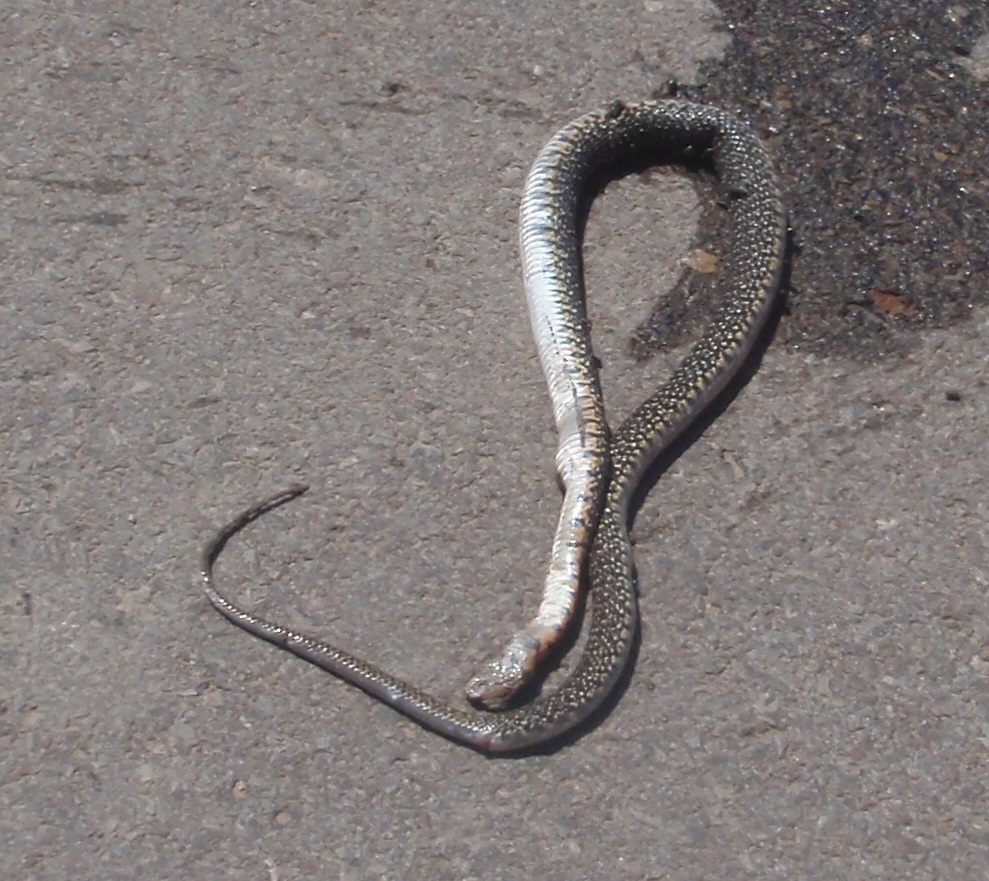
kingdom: Animalia
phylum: Chordata
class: Squamata
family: Colubridae
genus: Hemorrhois
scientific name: Hemorrhois hippocrepis
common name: Horseshoe whip snake
